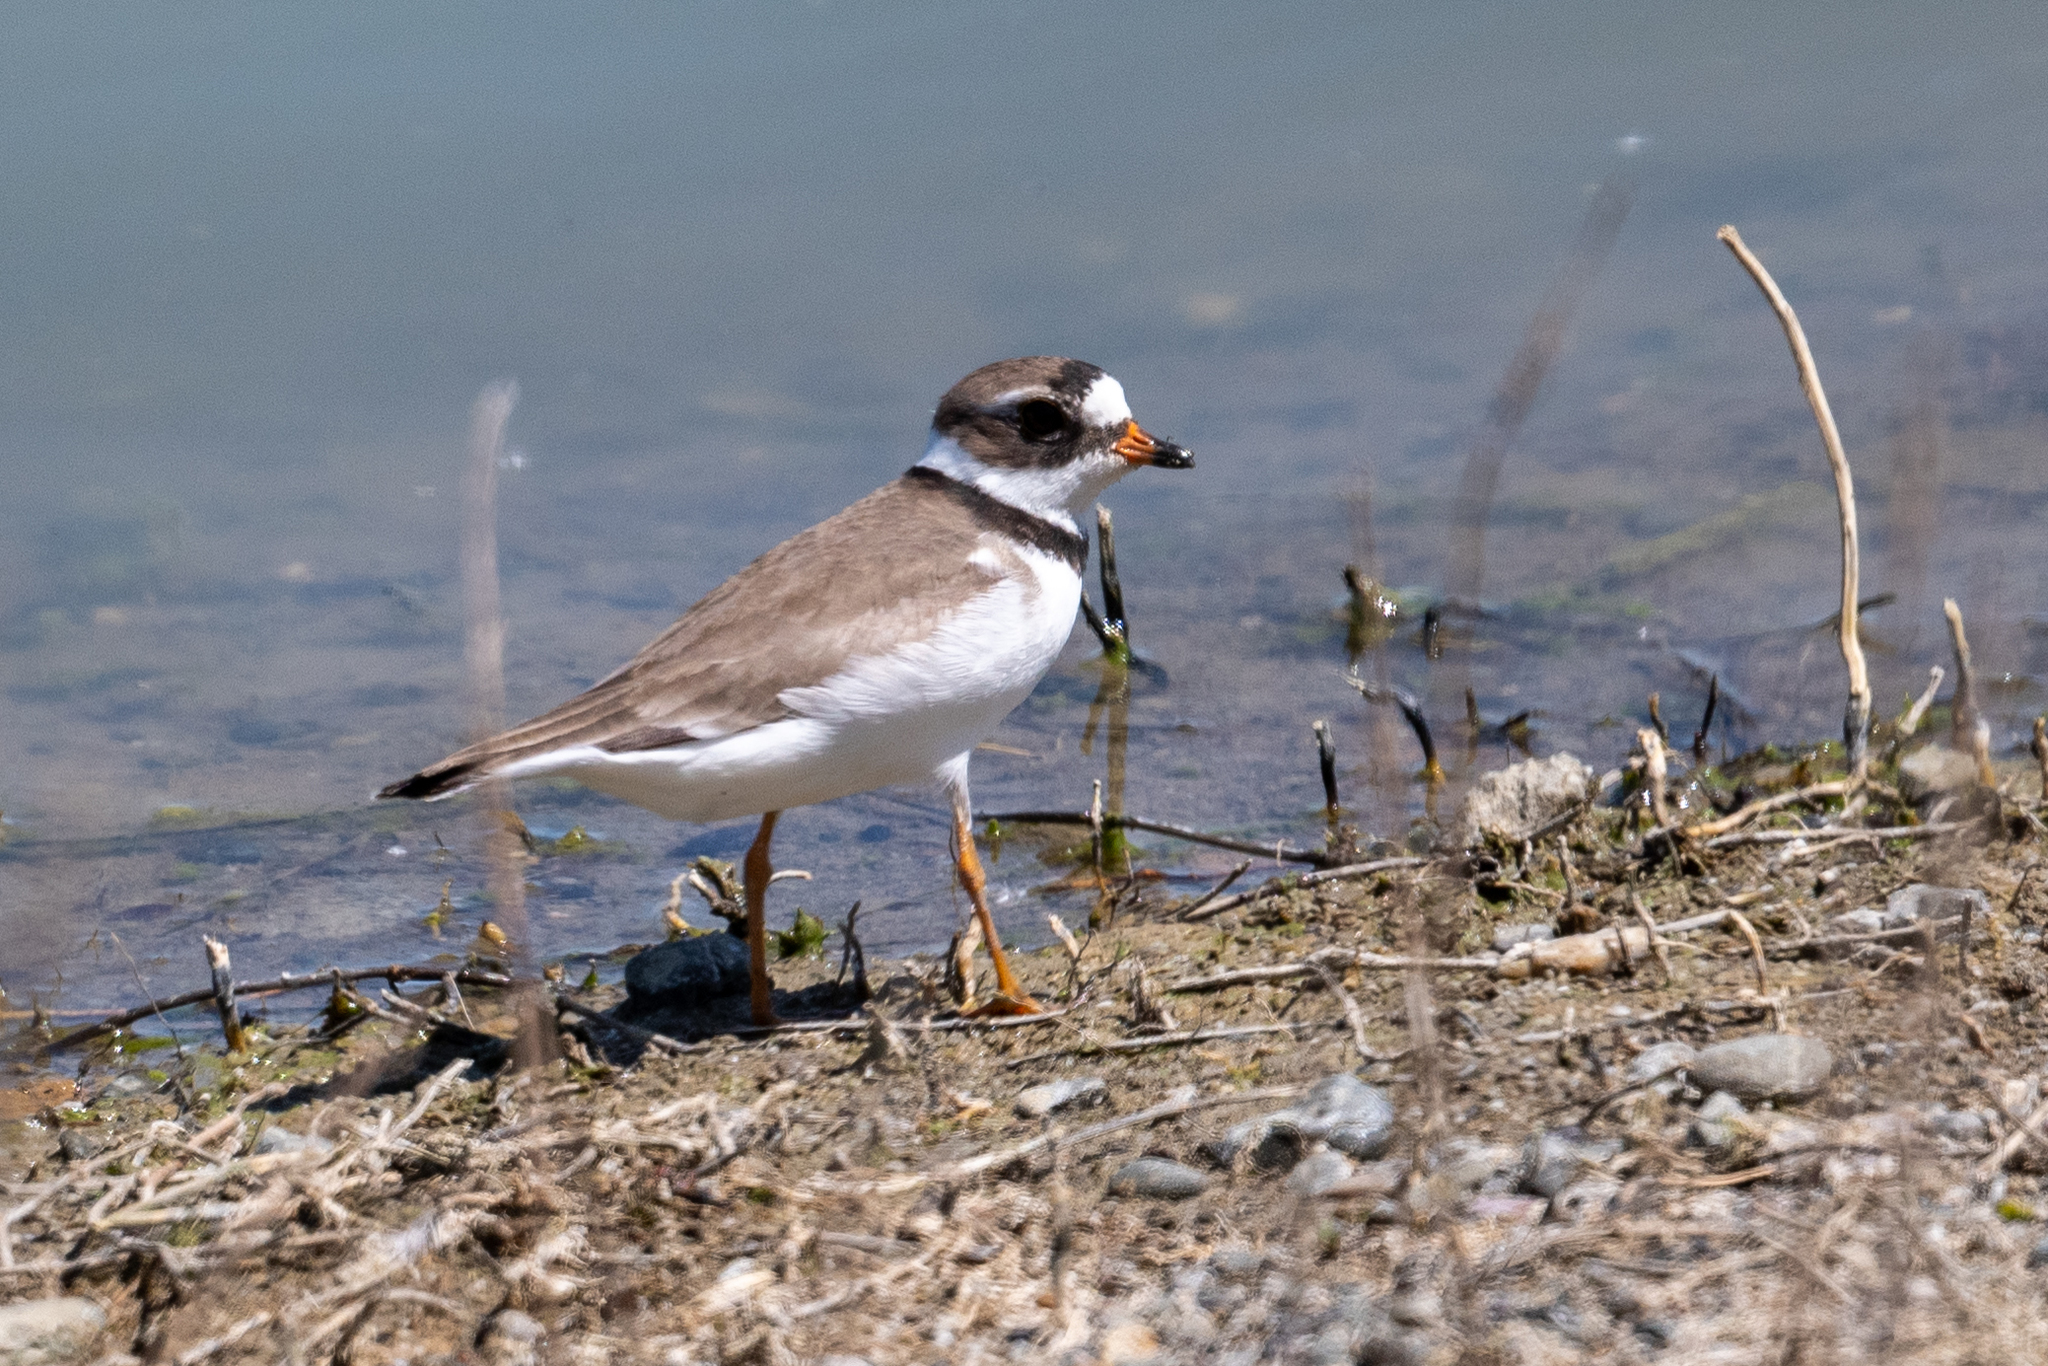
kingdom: Animalia
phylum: Chordata
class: Aves
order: Charadriiformes
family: Charadriidae
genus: Charadrius
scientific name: Charadrius semipalmatus
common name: Semipalmated plover
